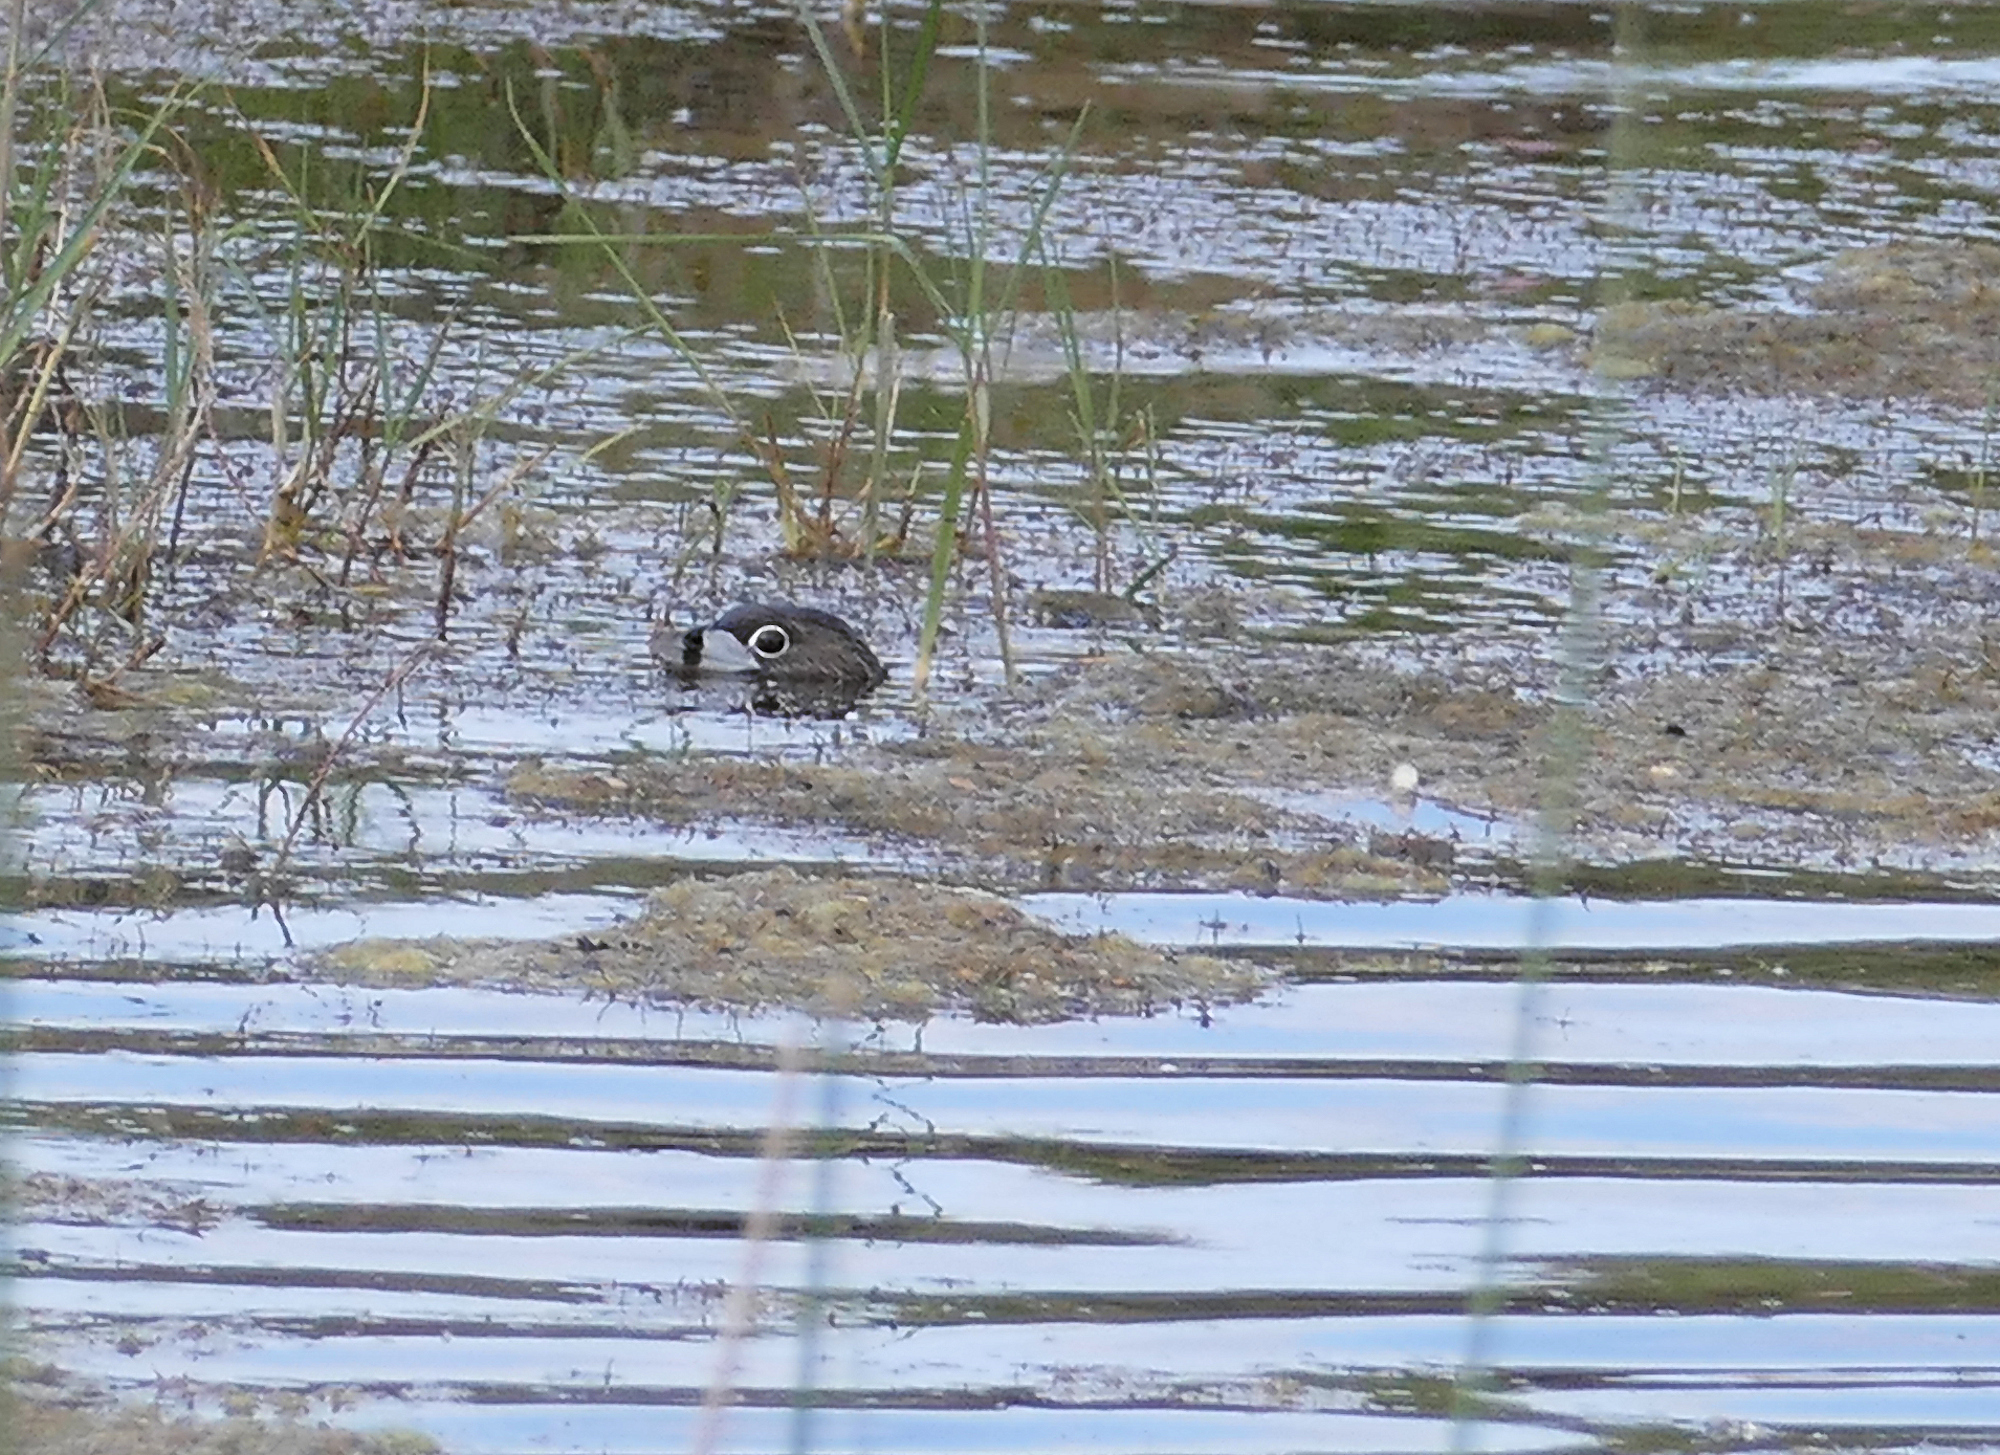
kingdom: Animalia
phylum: Chordata
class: Aves
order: Podicipediformes
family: Podicipedidae
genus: Podilymbus
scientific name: Podilymbus podiceps
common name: Pied-billed grebe
